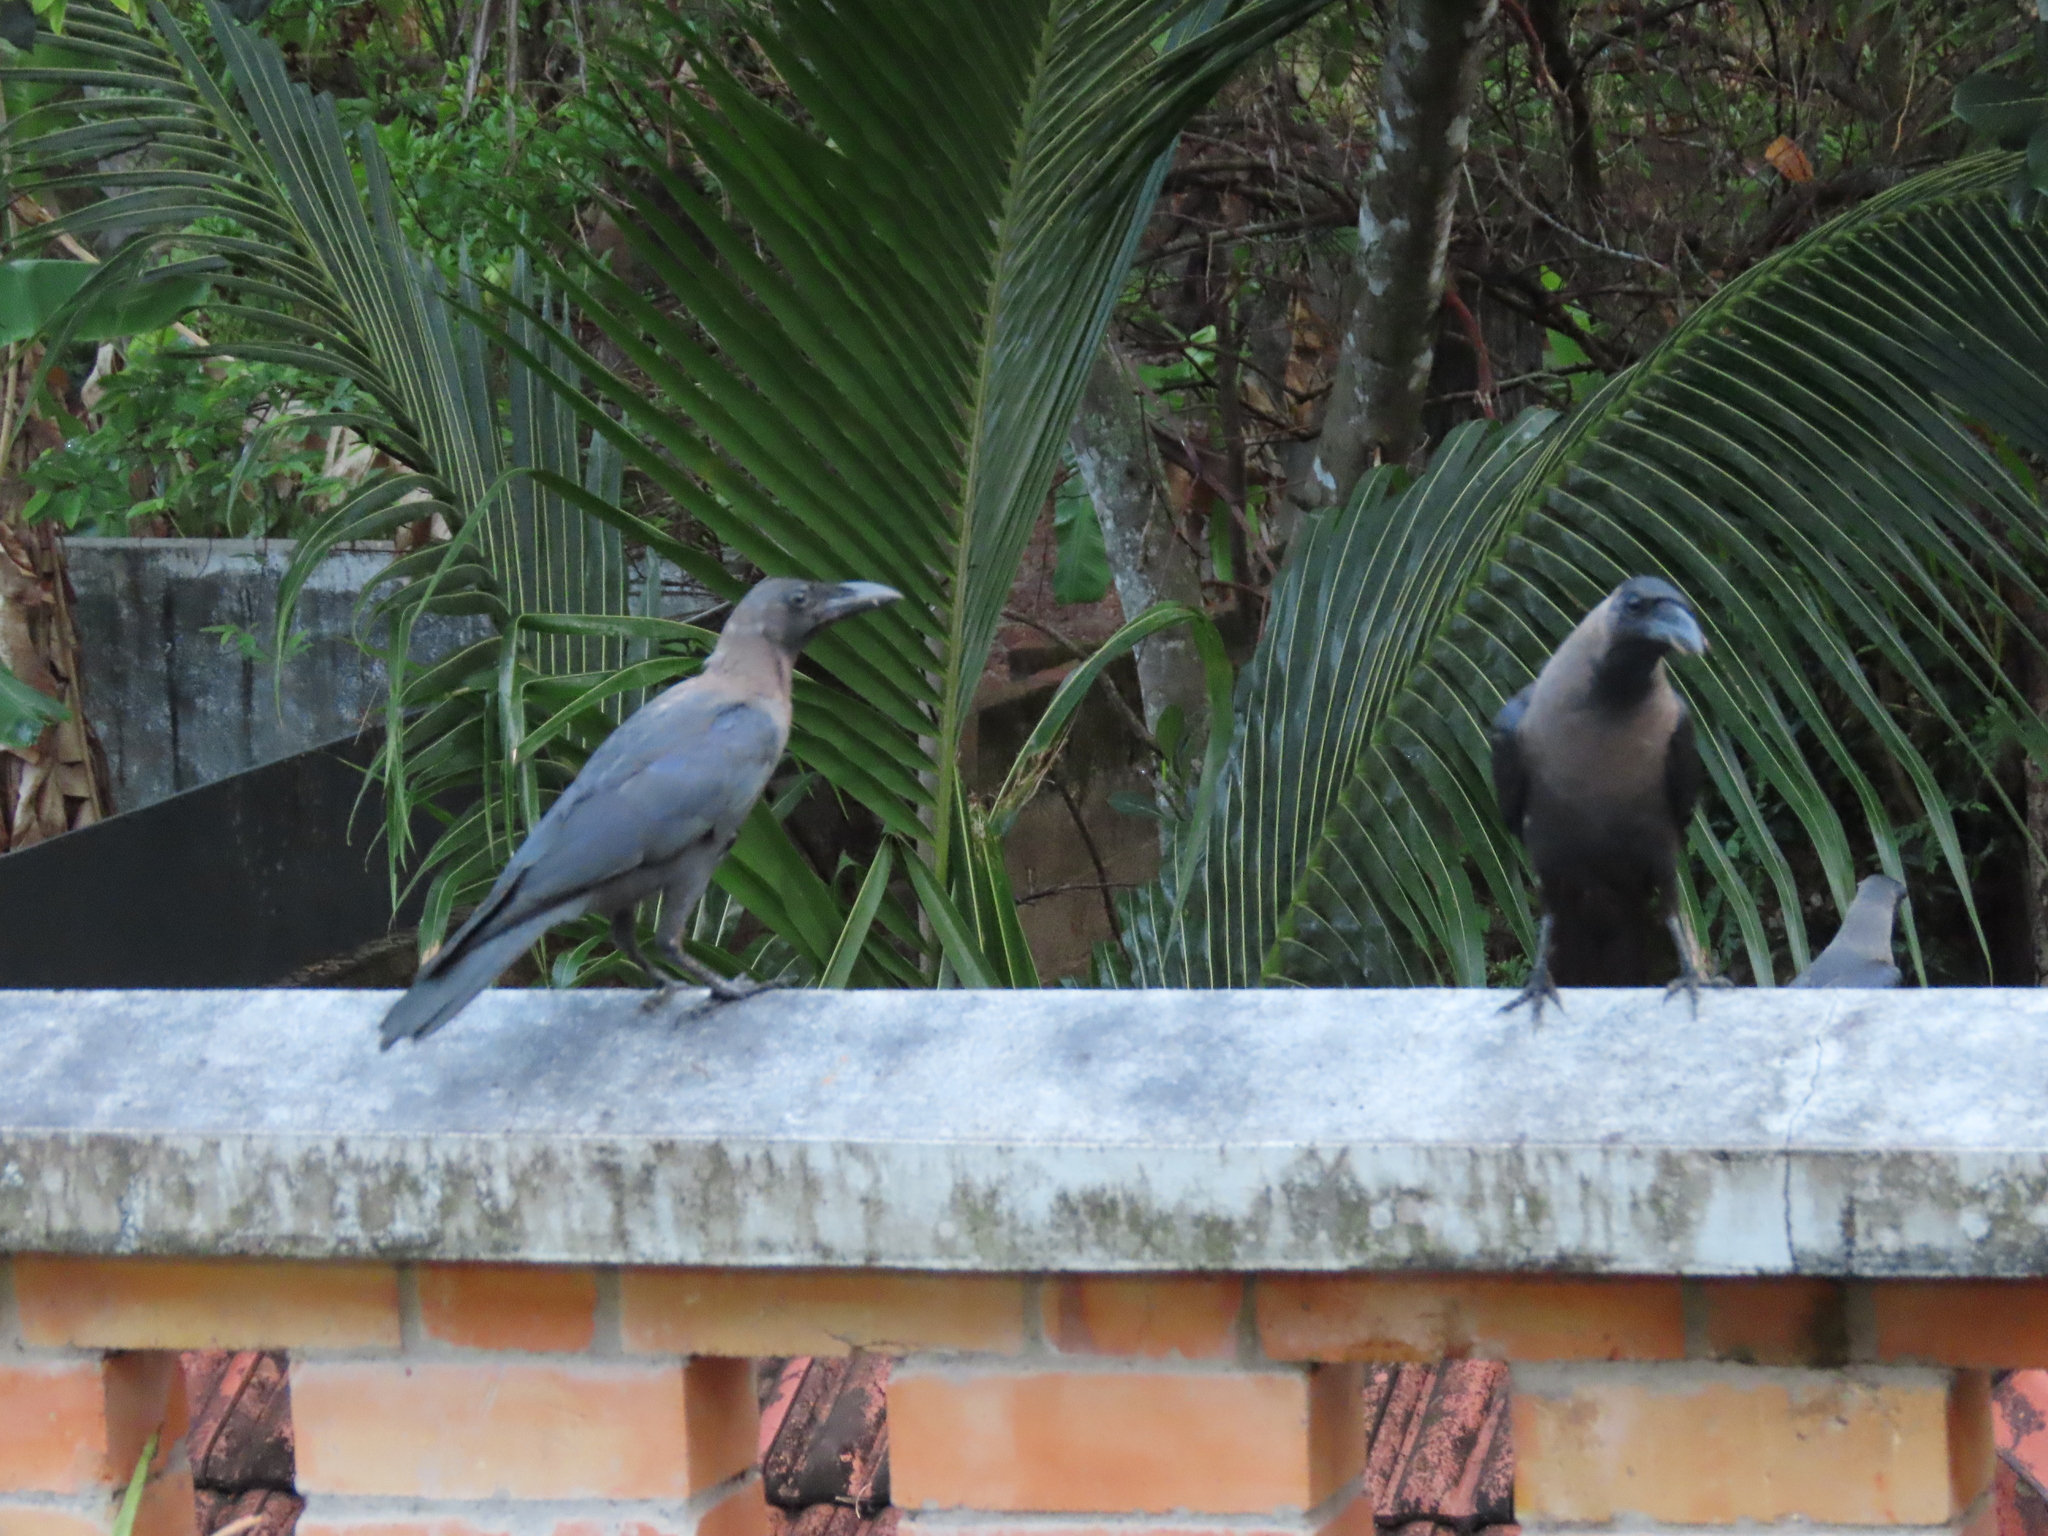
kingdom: Animalia
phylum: Chordata
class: Aves
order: Passeriformes
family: Corvidae
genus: Corvus
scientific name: Corvus splendens
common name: House crow
